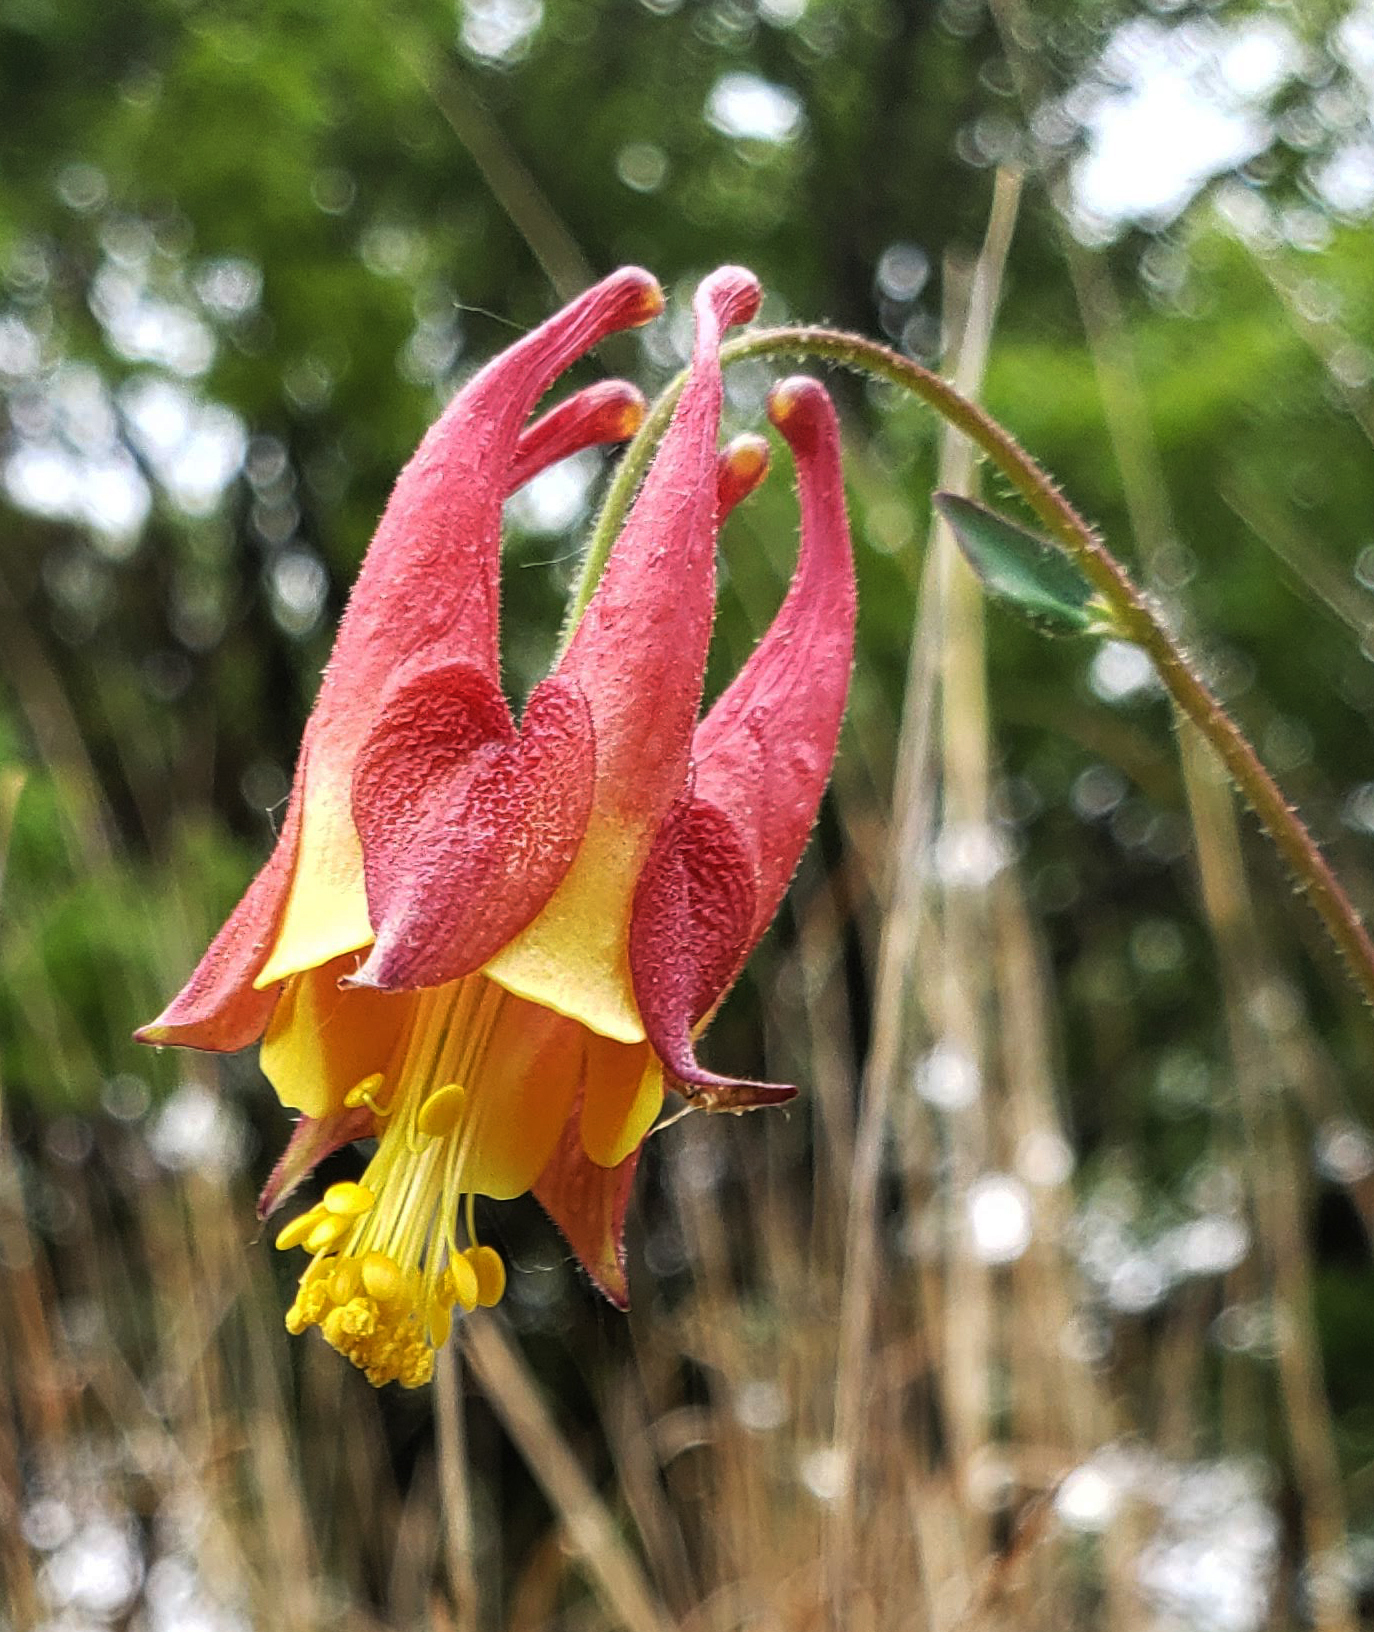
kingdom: Plantae
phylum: Tracheophyta
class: Magnoliopsida
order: Ranunculales
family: Ranunculaceae
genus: Aquilegia
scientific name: Aquilegia canadensis
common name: American columbine
